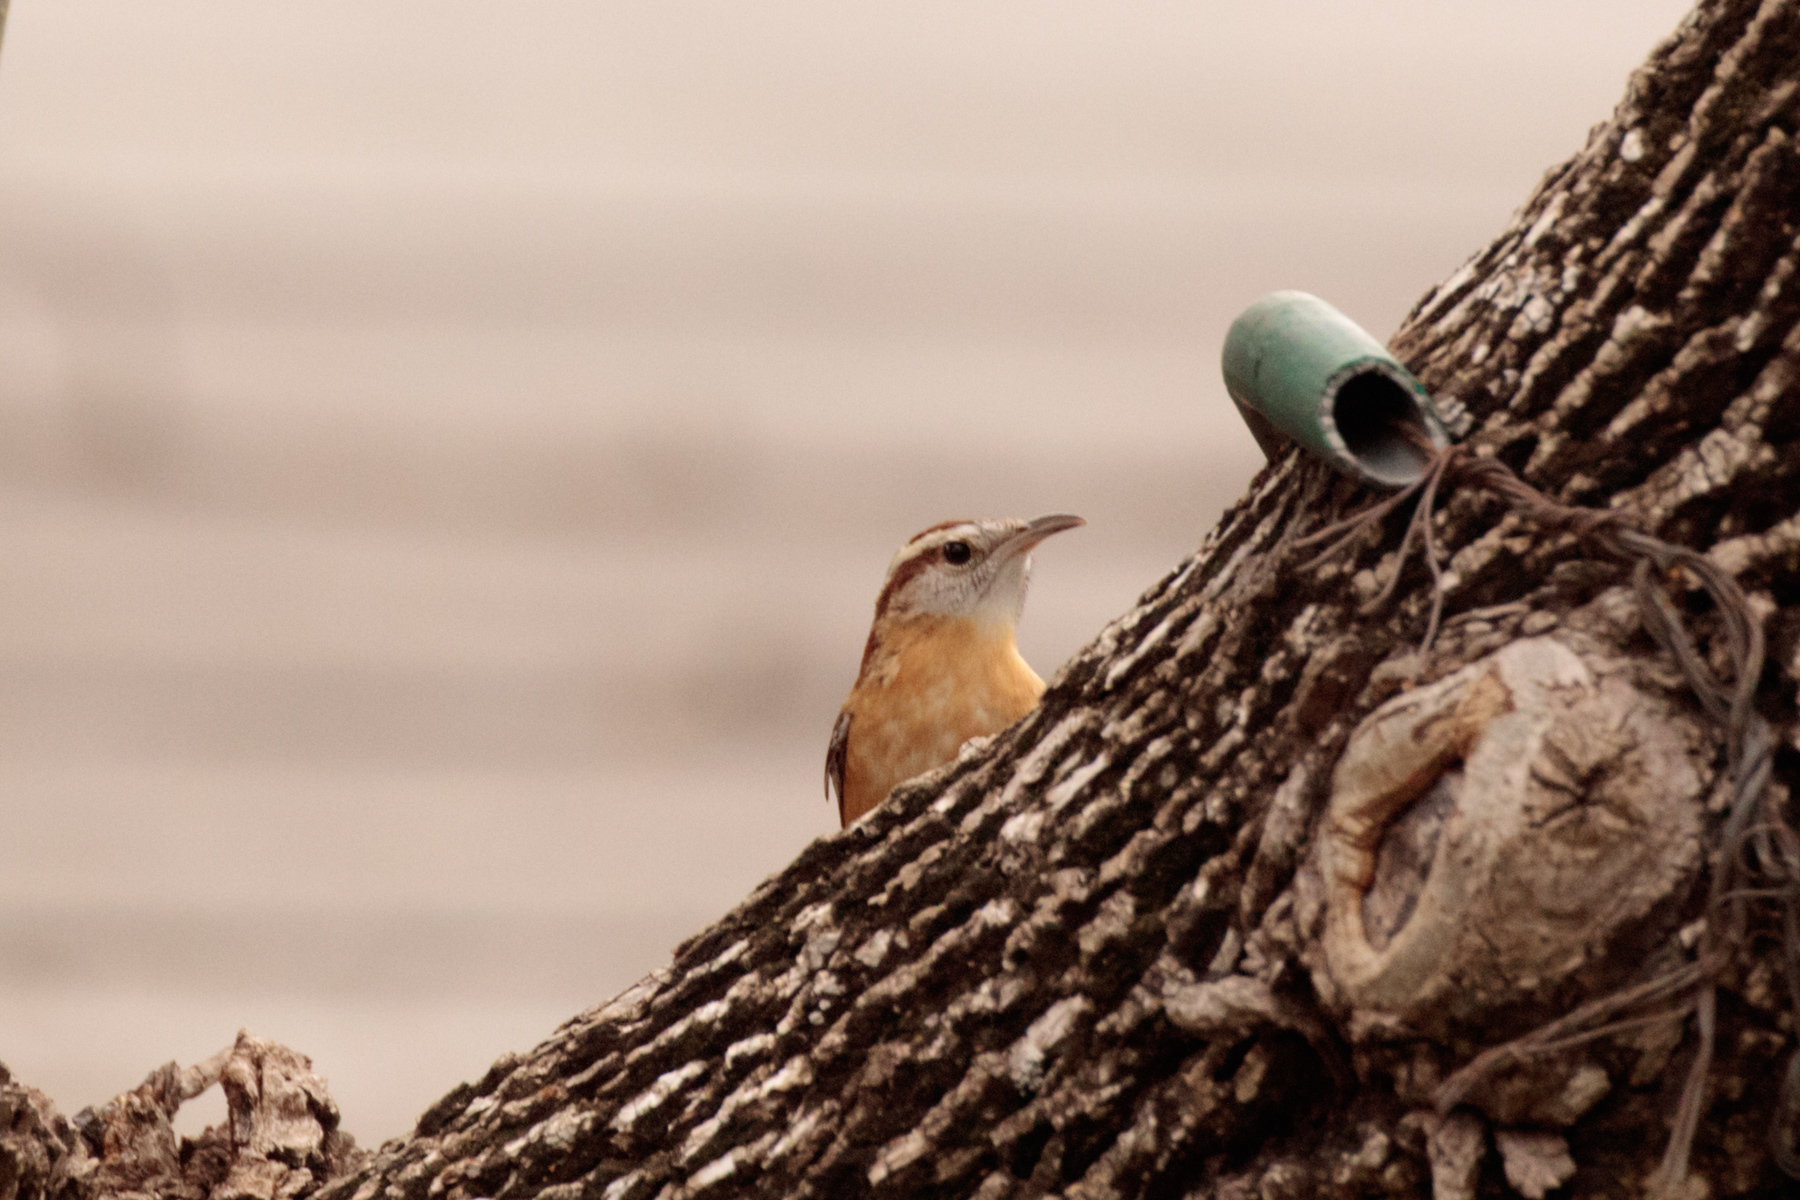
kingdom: Animalia
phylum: Chordata
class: Aves
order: Passeriformes
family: Troglodytidae
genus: Thryothorus
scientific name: Thryothorus ludovicianus
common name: Carolina wren
